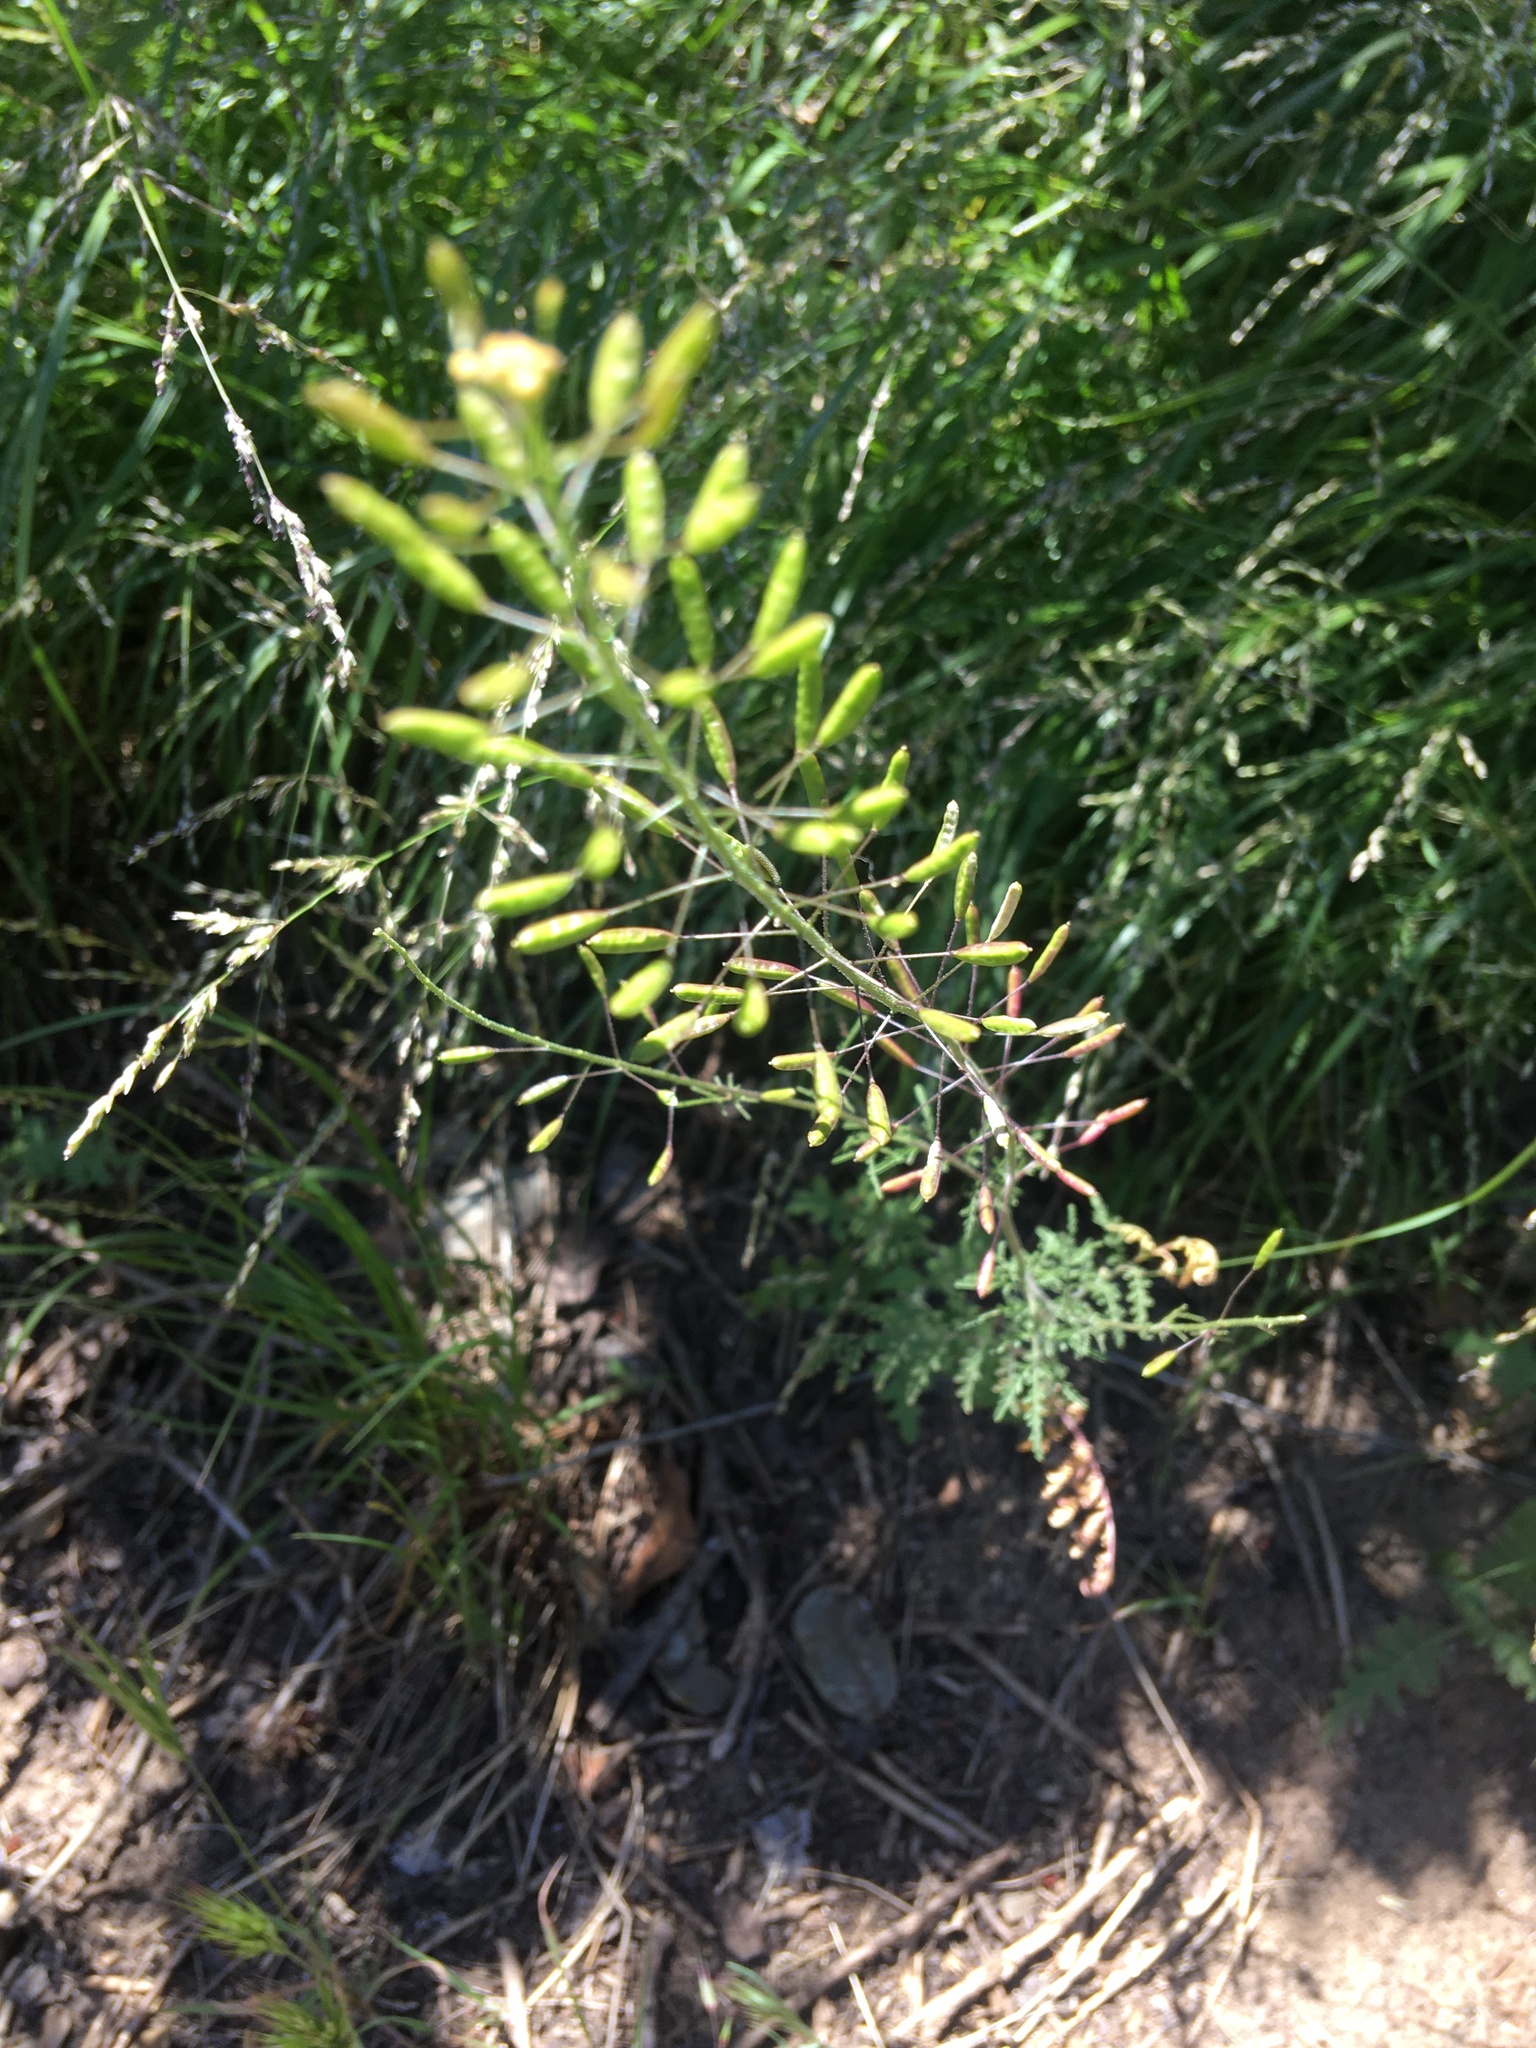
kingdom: Plantae
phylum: Tracheophyta
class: Magnoliopsida
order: Brassicales
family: Brassicaceae
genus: Descurainia
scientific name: Descurainia pinnata
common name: Western tansy mustard
